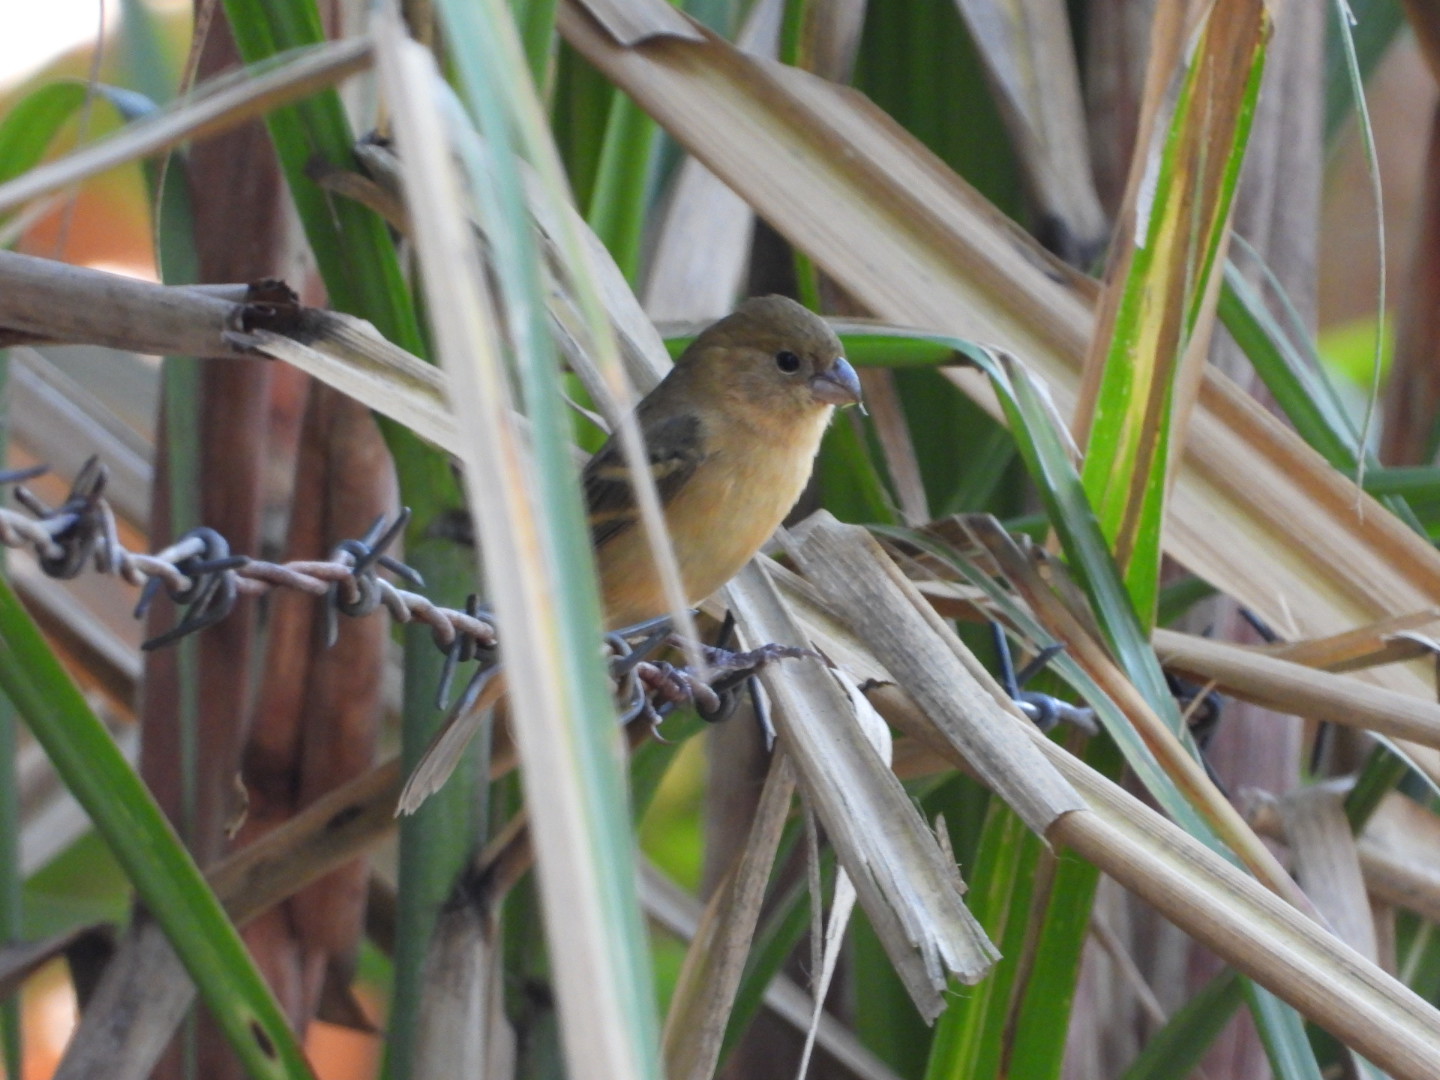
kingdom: Animalia
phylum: Chordata
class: Aves
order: Passeriformes
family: Thraupidae
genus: Sporophila
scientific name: Sporophila morelleti
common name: Morelet's seedeater
